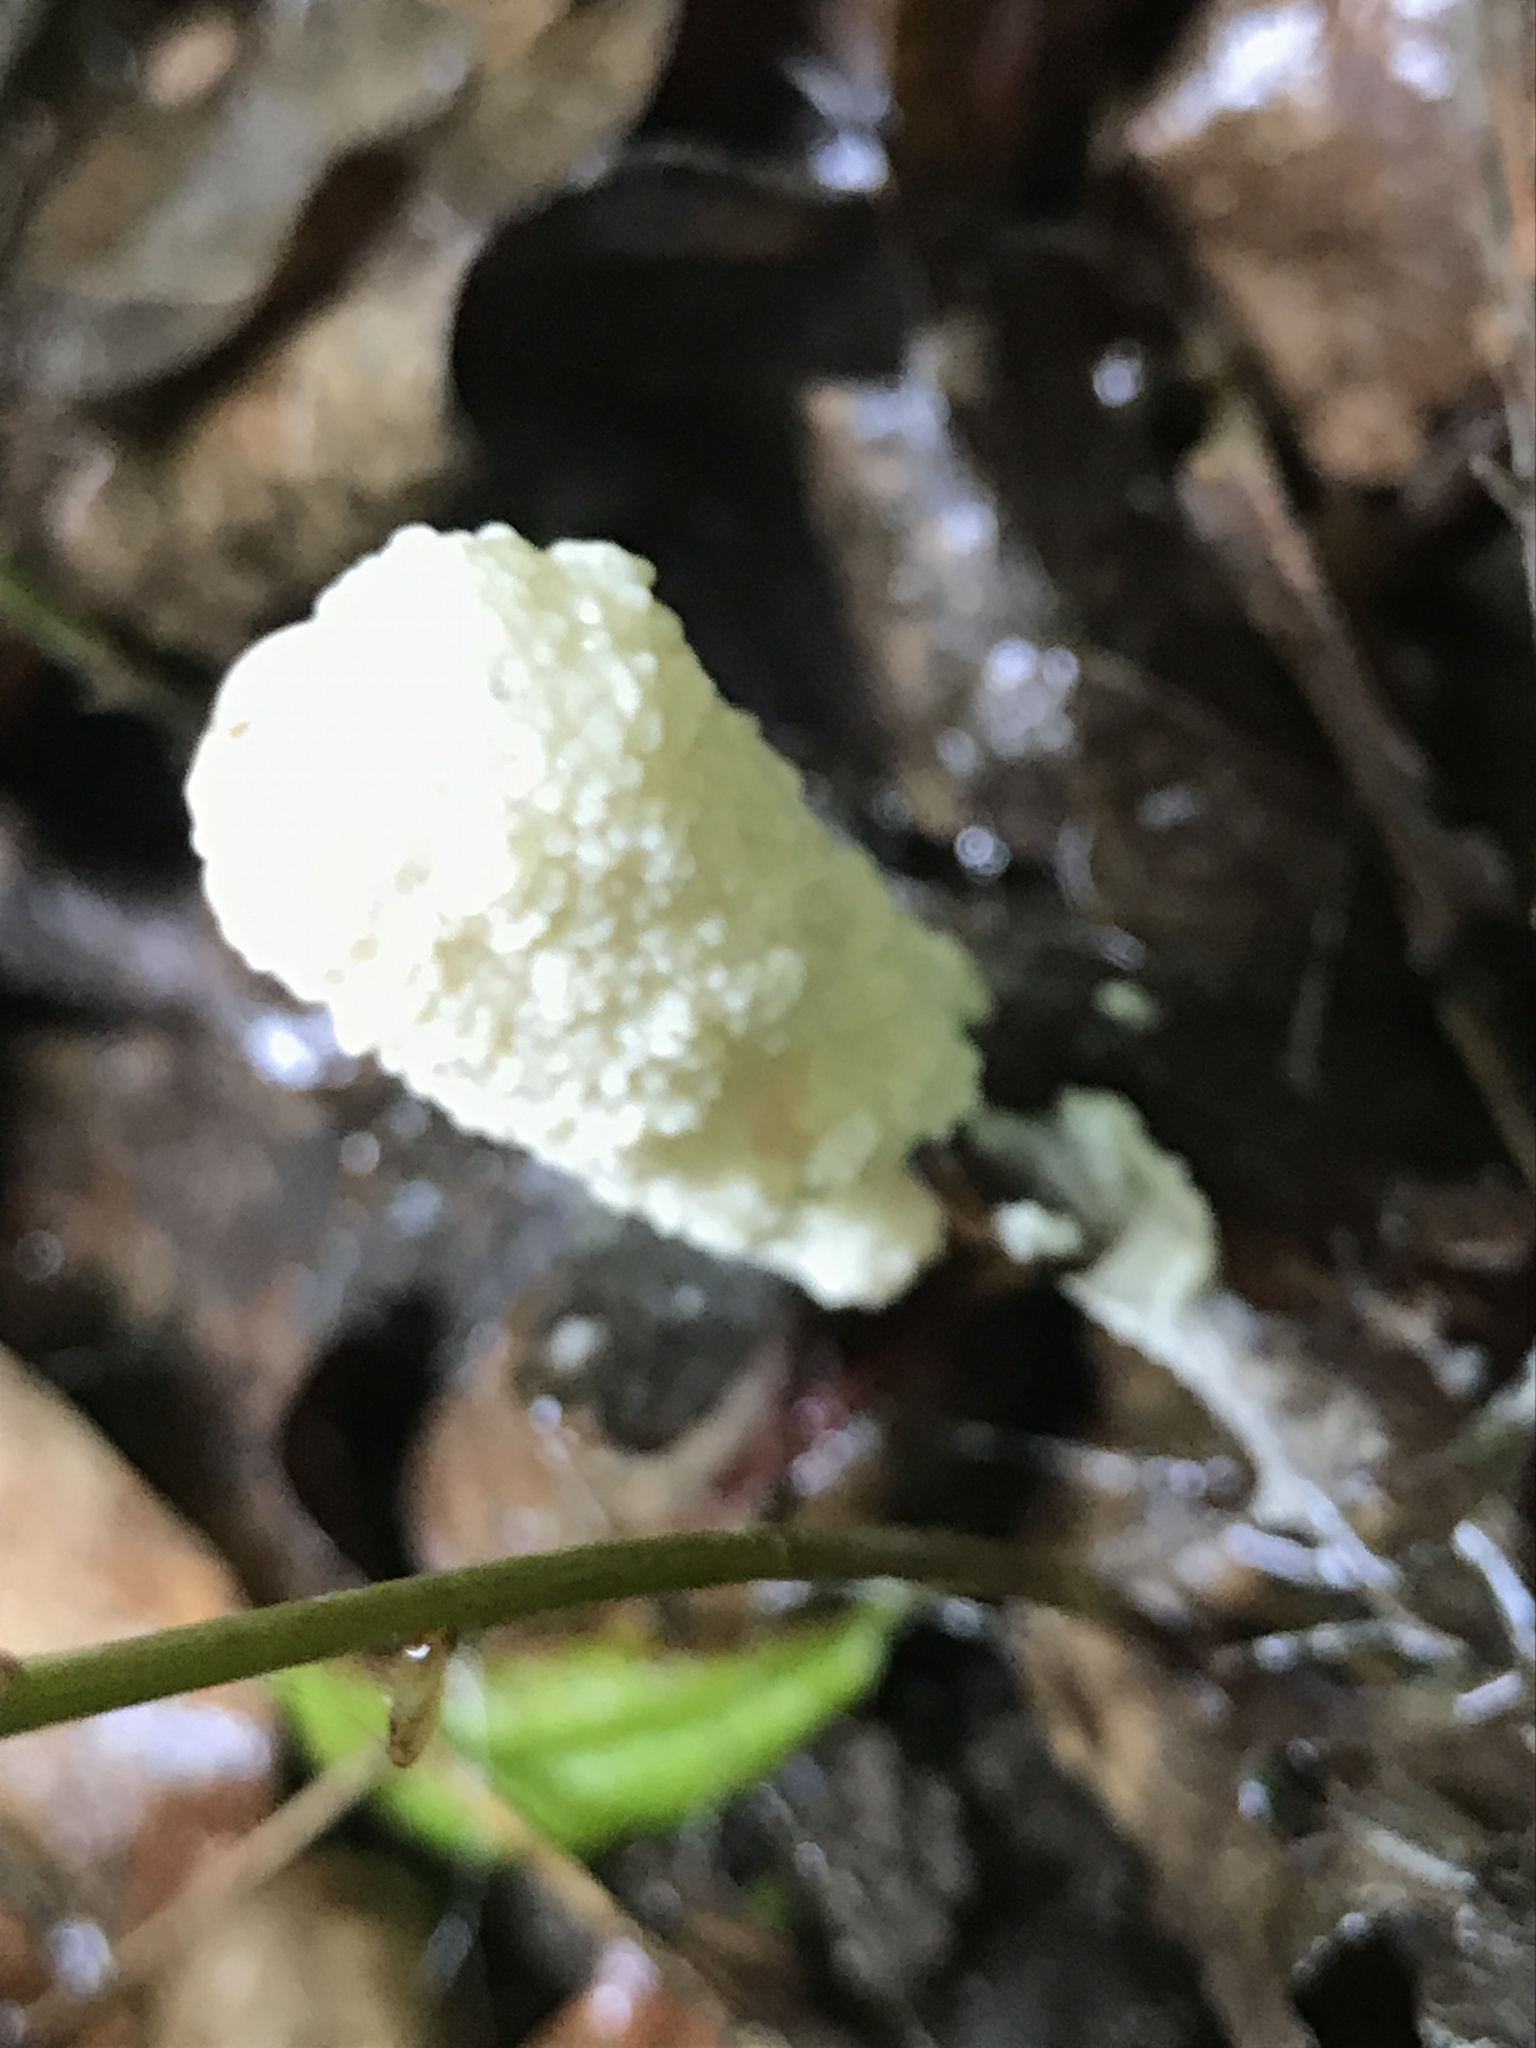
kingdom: Protozoa
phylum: Mycetozoa
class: Myxomycetes
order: Physarales
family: Physaraceae
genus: Fuligo
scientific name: Fuligo septica
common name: Dog vomit slime mold
